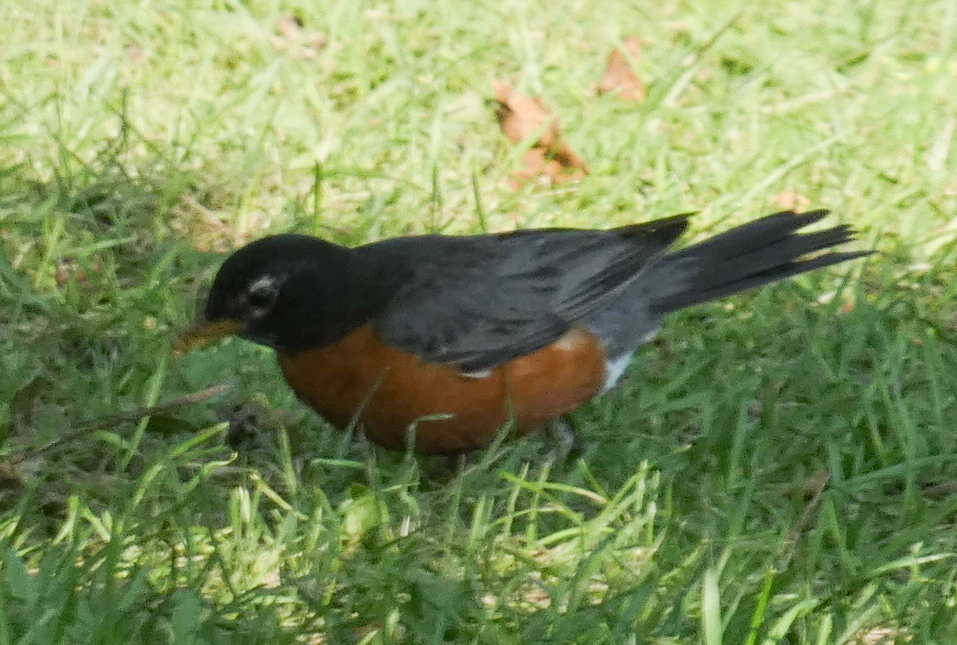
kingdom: Animalia
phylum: Chordata
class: Aves
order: Passeriformes
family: Turdidae
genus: Turdus
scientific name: Turdus migratorius
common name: American robin
